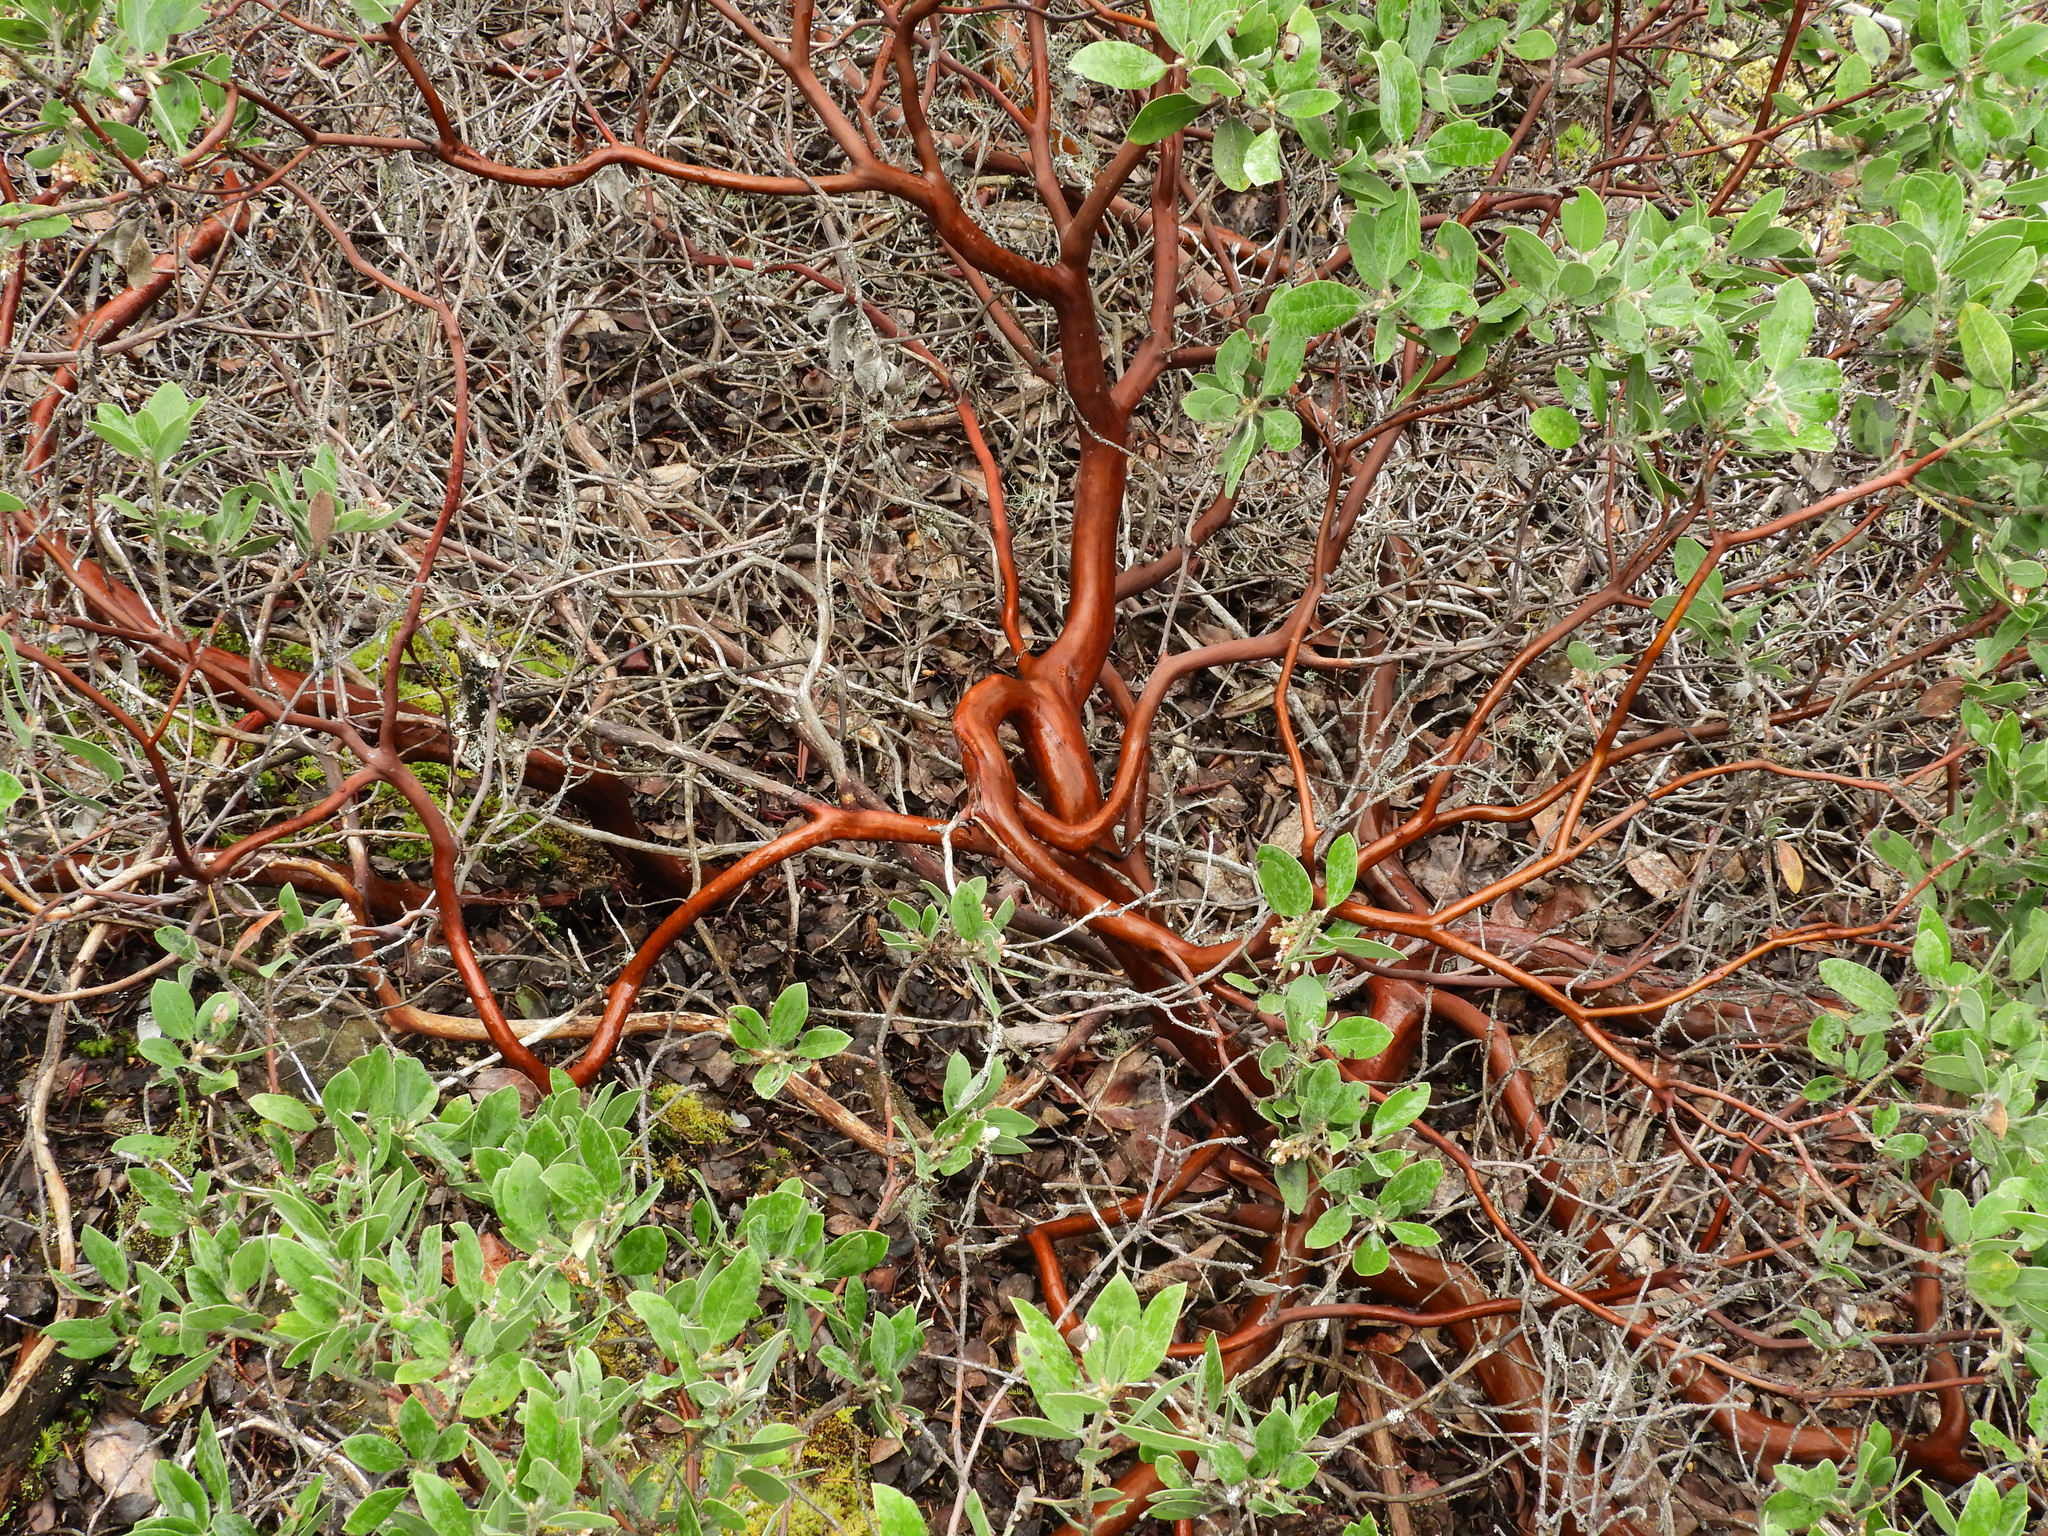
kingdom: Plantae
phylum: Tracheophyta
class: Magnoliopsida
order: Ericales
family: Ericaceae
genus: Arctostaphylos
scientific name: Arctostaphylos columbiana
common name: Bristly bearberry
